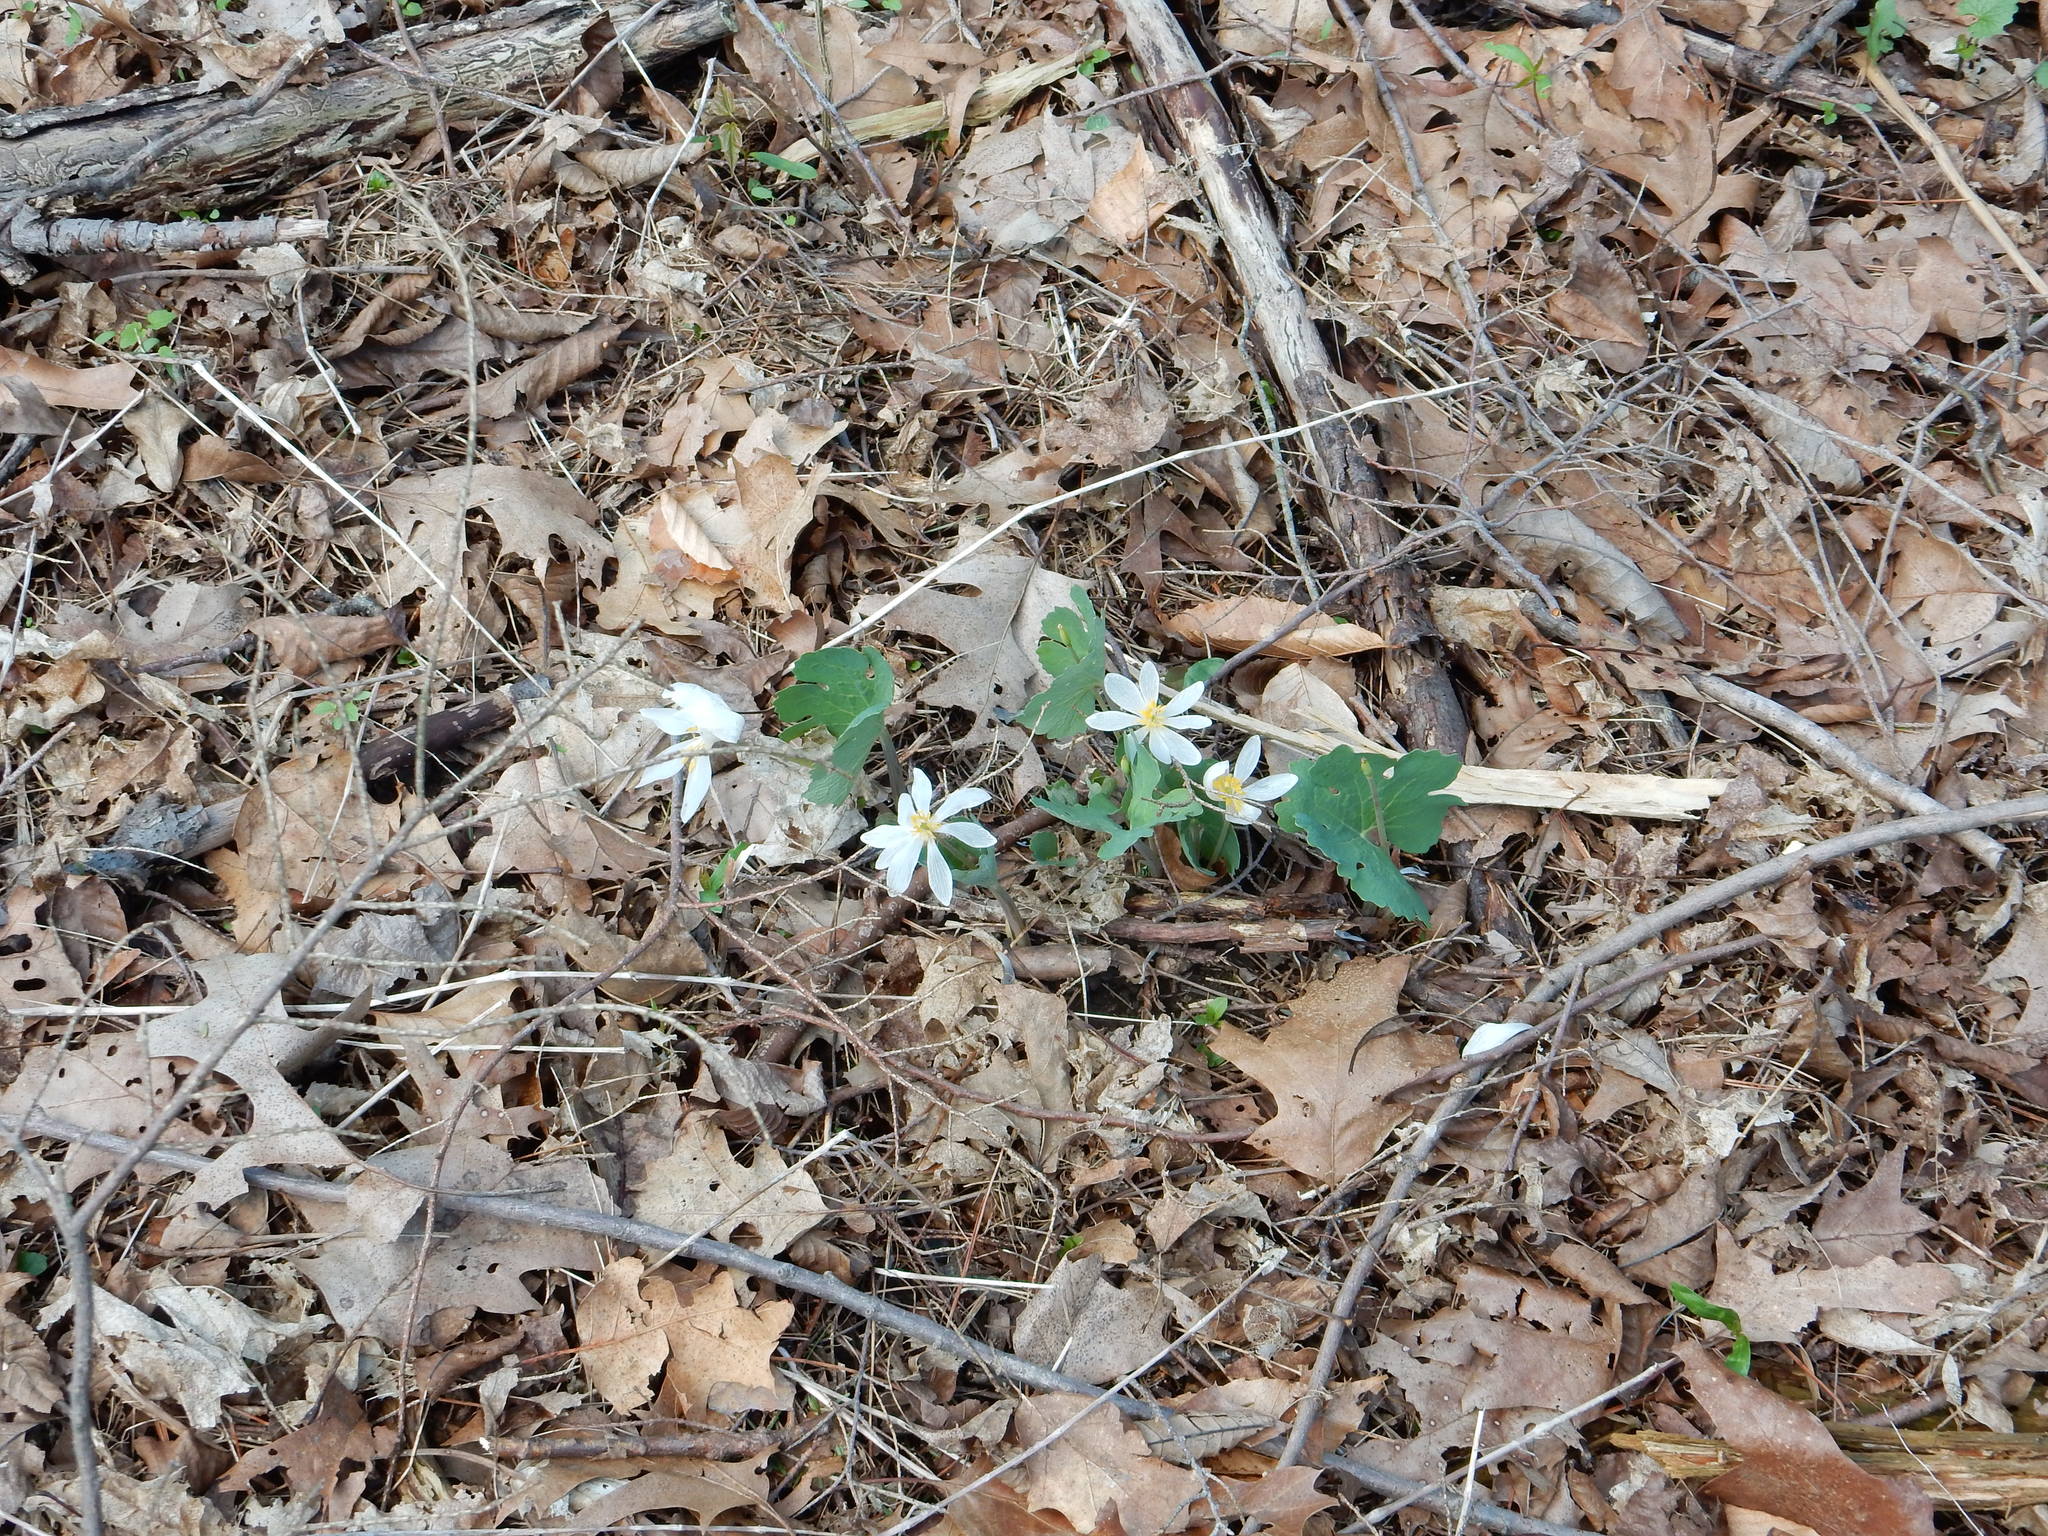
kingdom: Plantae
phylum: Tracheophyta
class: Magnoliopsida
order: Ranunculales
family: Papaveraceae
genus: Sanguinaria
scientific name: Sanguinaria canadensis
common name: Bloodroot
